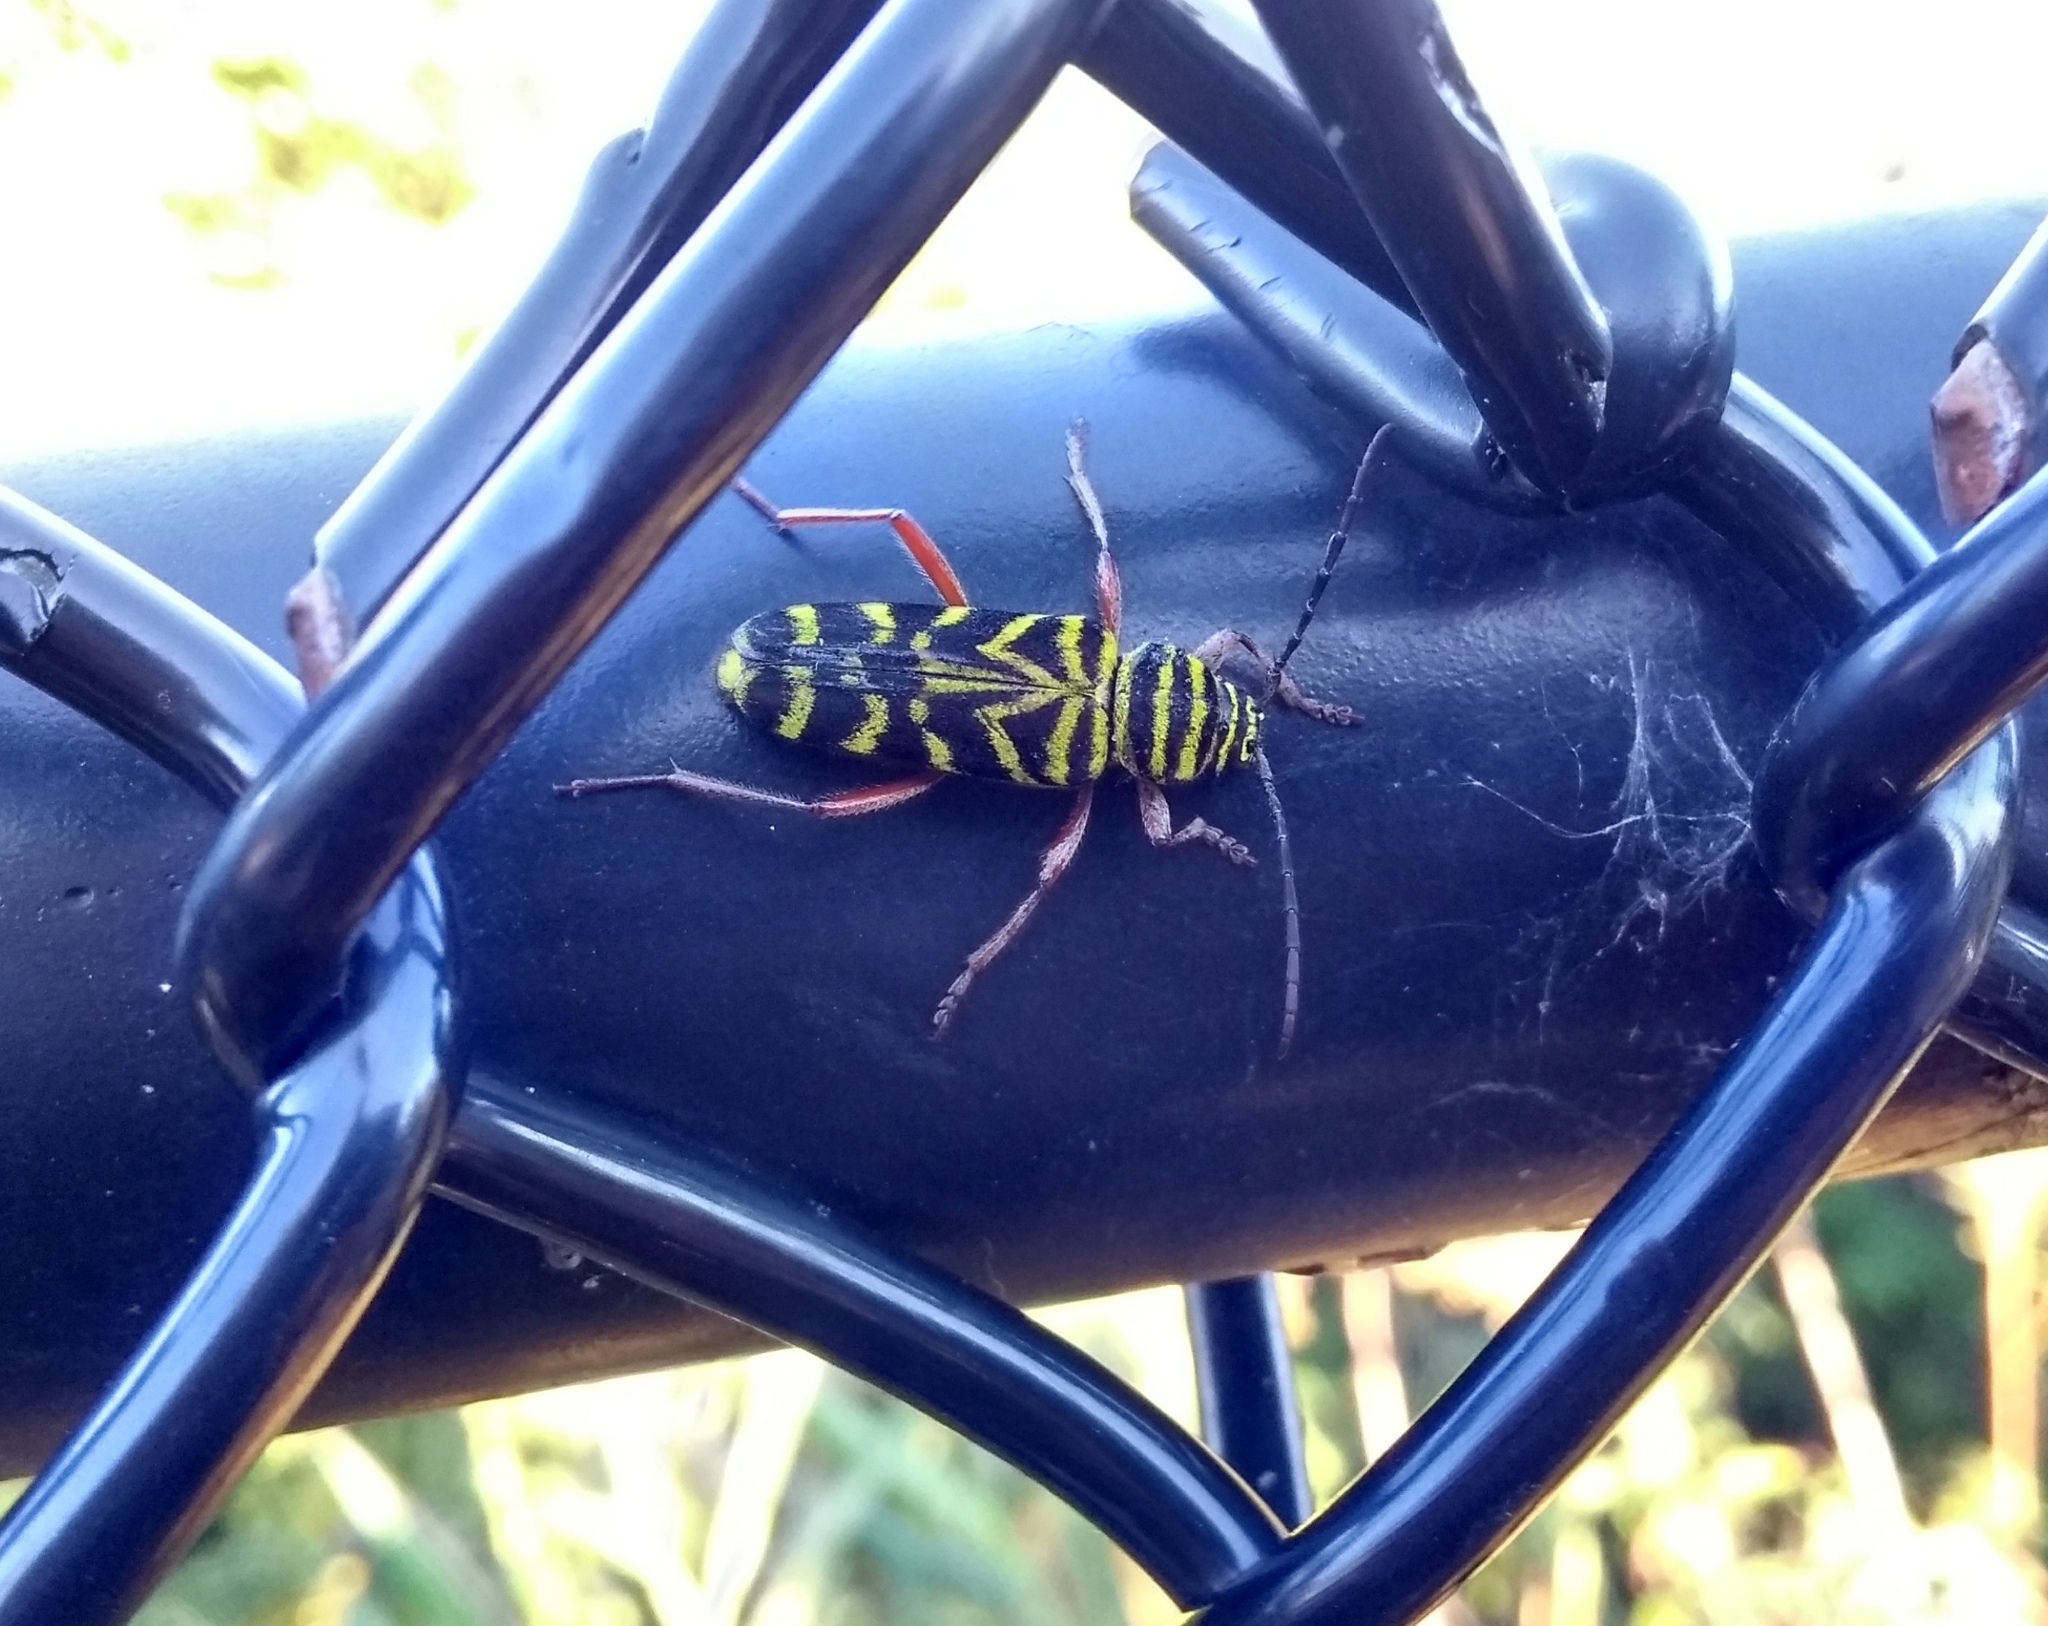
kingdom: Animalia
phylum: Arthropoda
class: Insecta
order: Coleoptera
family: Cerambycidae
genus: Megacyllene
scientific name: Megacyllene robiniae
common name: Locust borer
